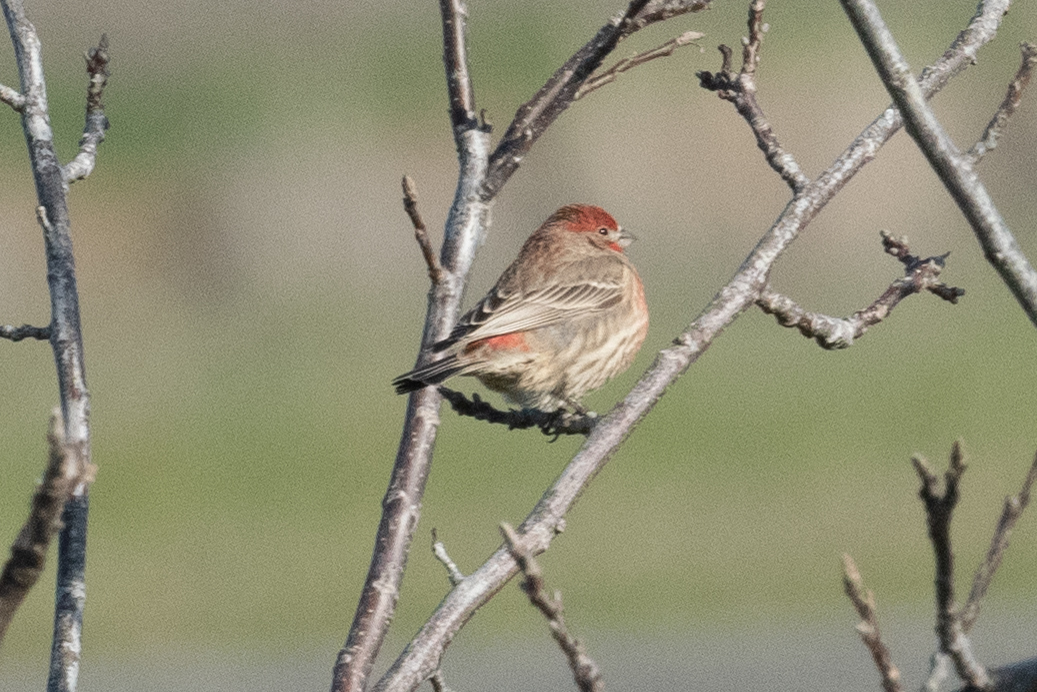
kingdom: Animalia
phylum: Chordata
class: Aves
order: Passeriformes
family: Fringillidae
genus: Haemorhous
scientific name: Haemorhous mexicanus
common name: House finch
